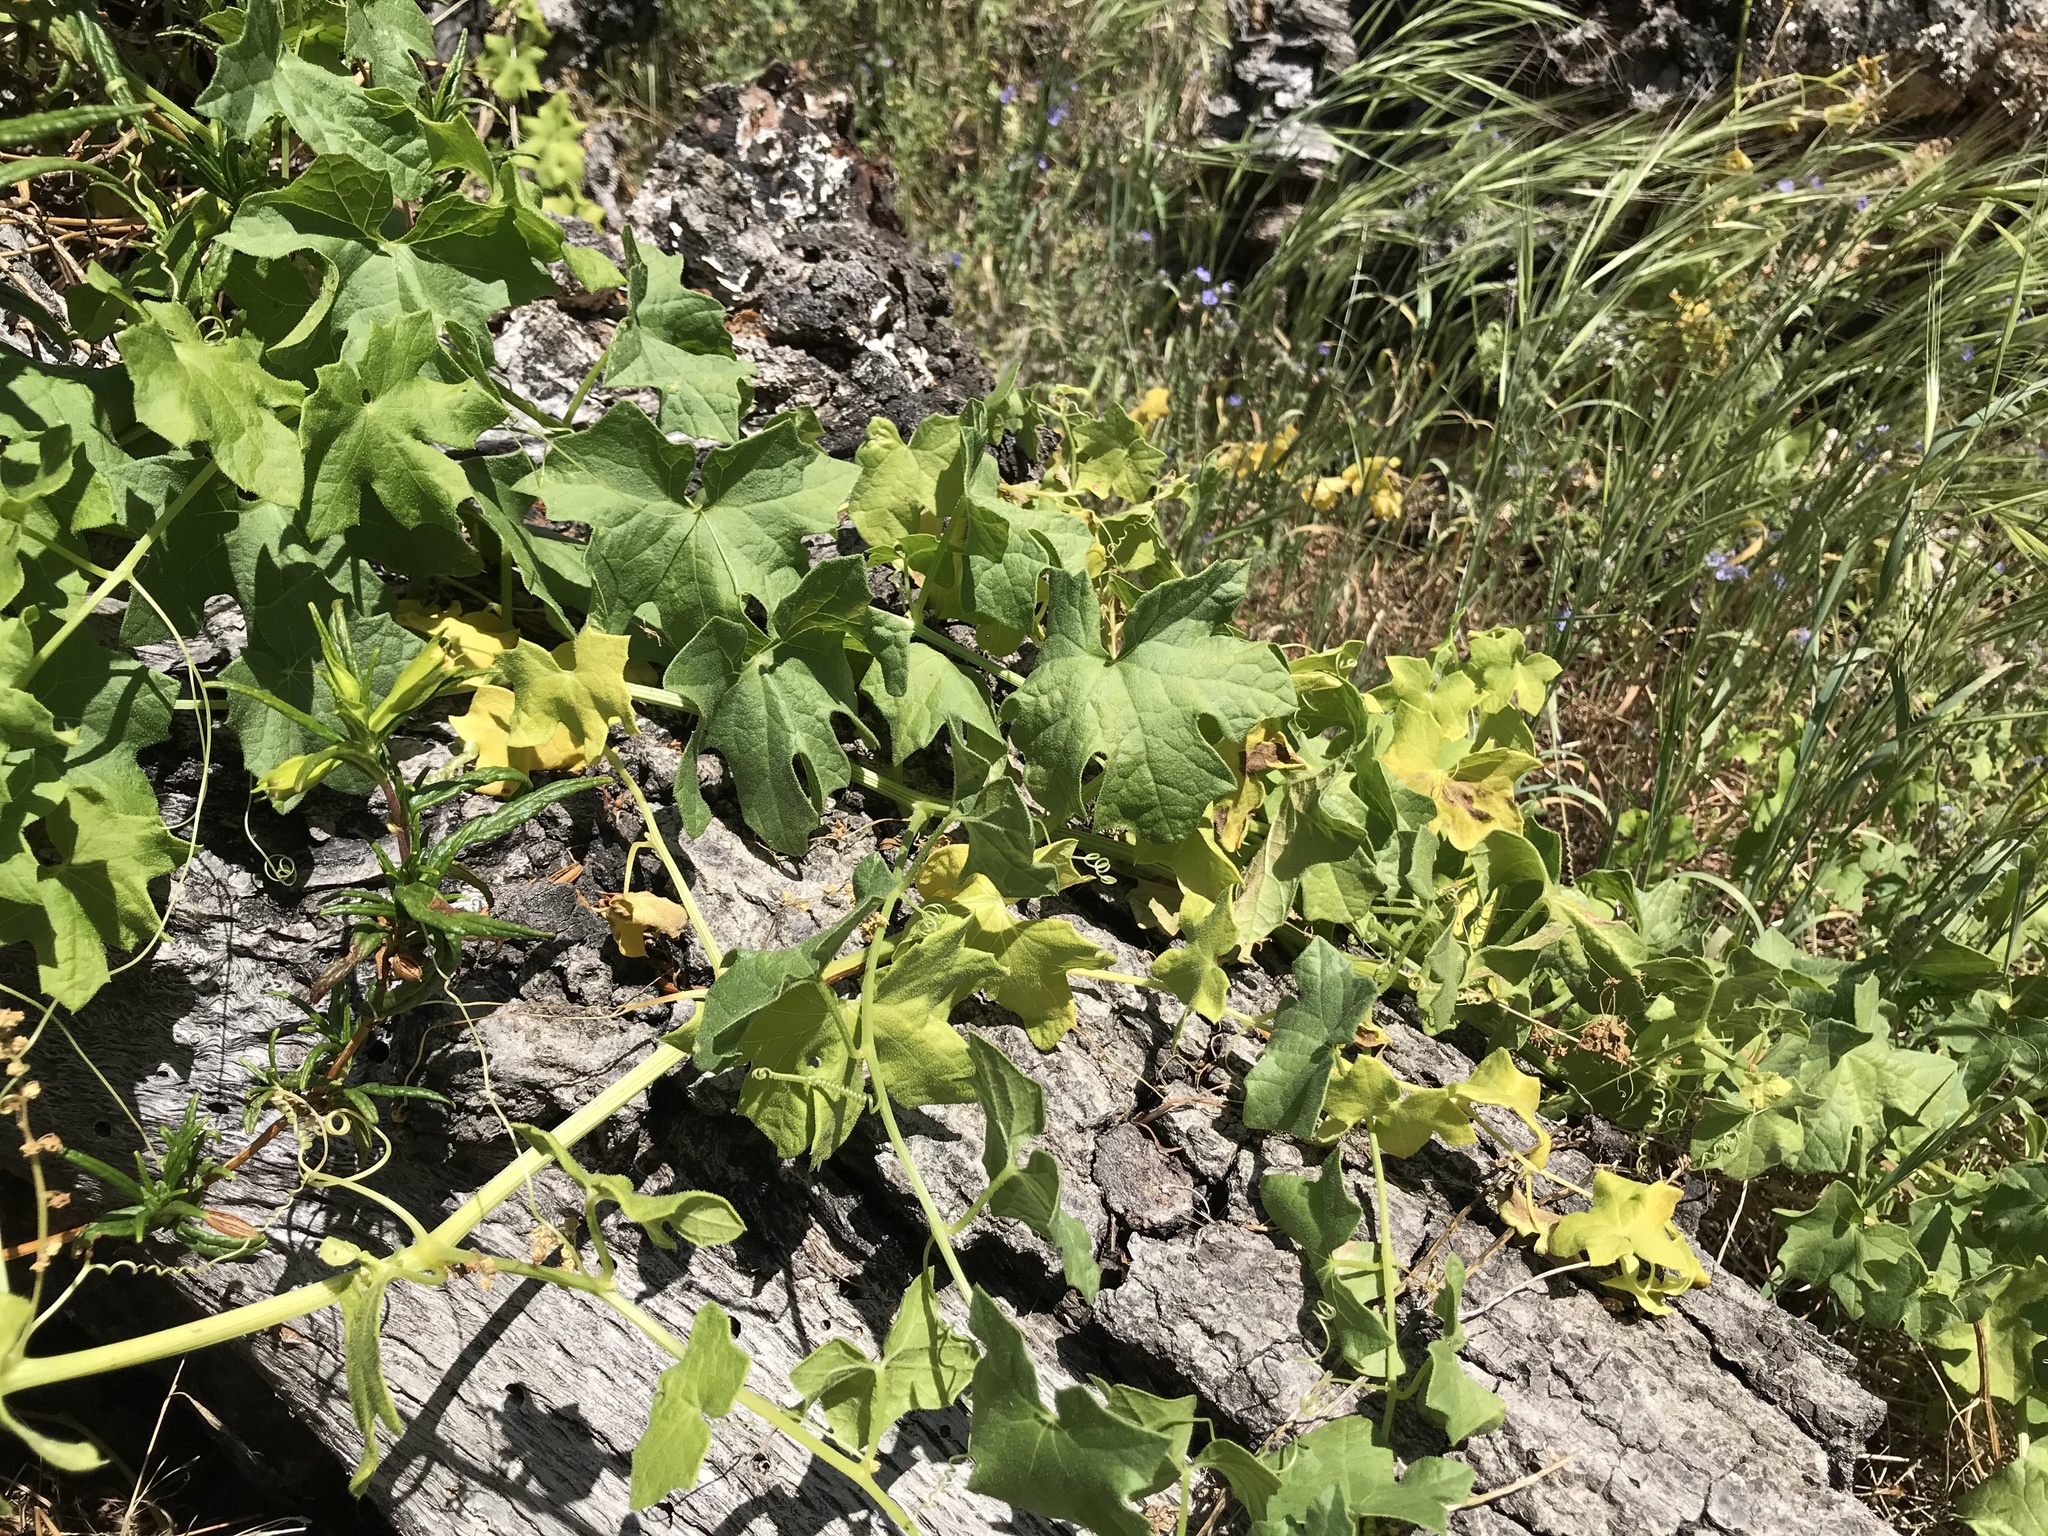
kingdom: Plantae
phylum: Tracheophyta
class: Magnoliopsida
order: Cucurbitales
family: Cucurbitaceae
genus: Marah
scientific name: Marah macrocarpa
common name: Cucamonga manroot
